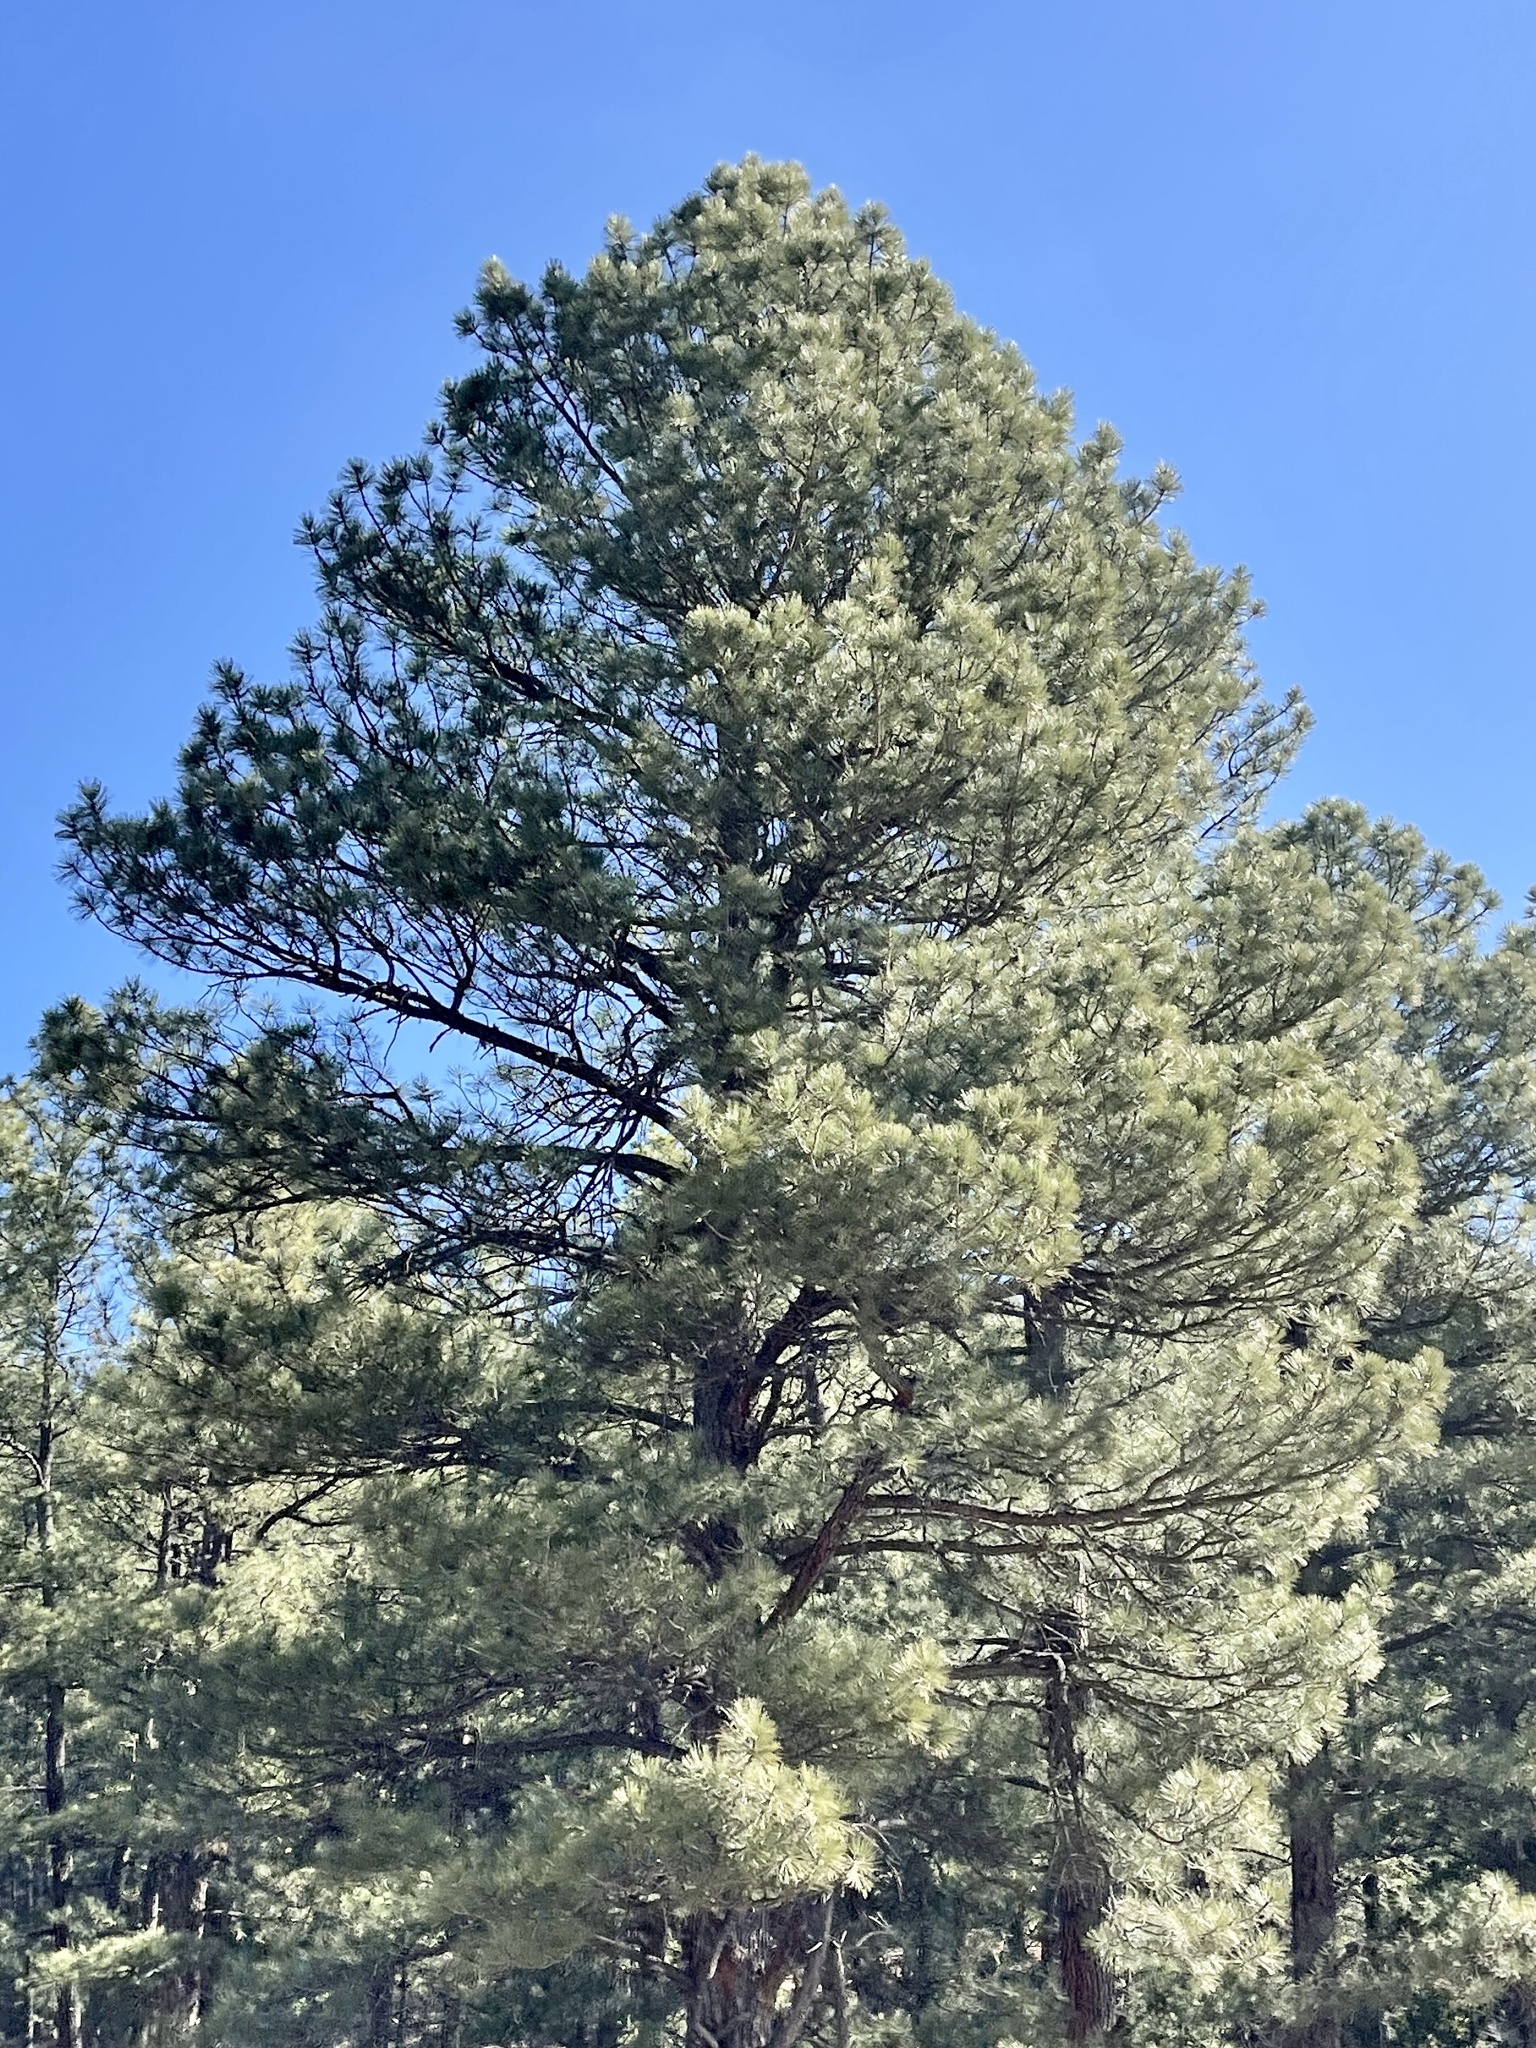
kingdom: Plantae
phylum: Tracheophyta
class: Pinopsida
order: Pinales
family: Pinaceae
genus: Pinus
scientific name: Pinus ponderosa
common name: Western yellow-pine
